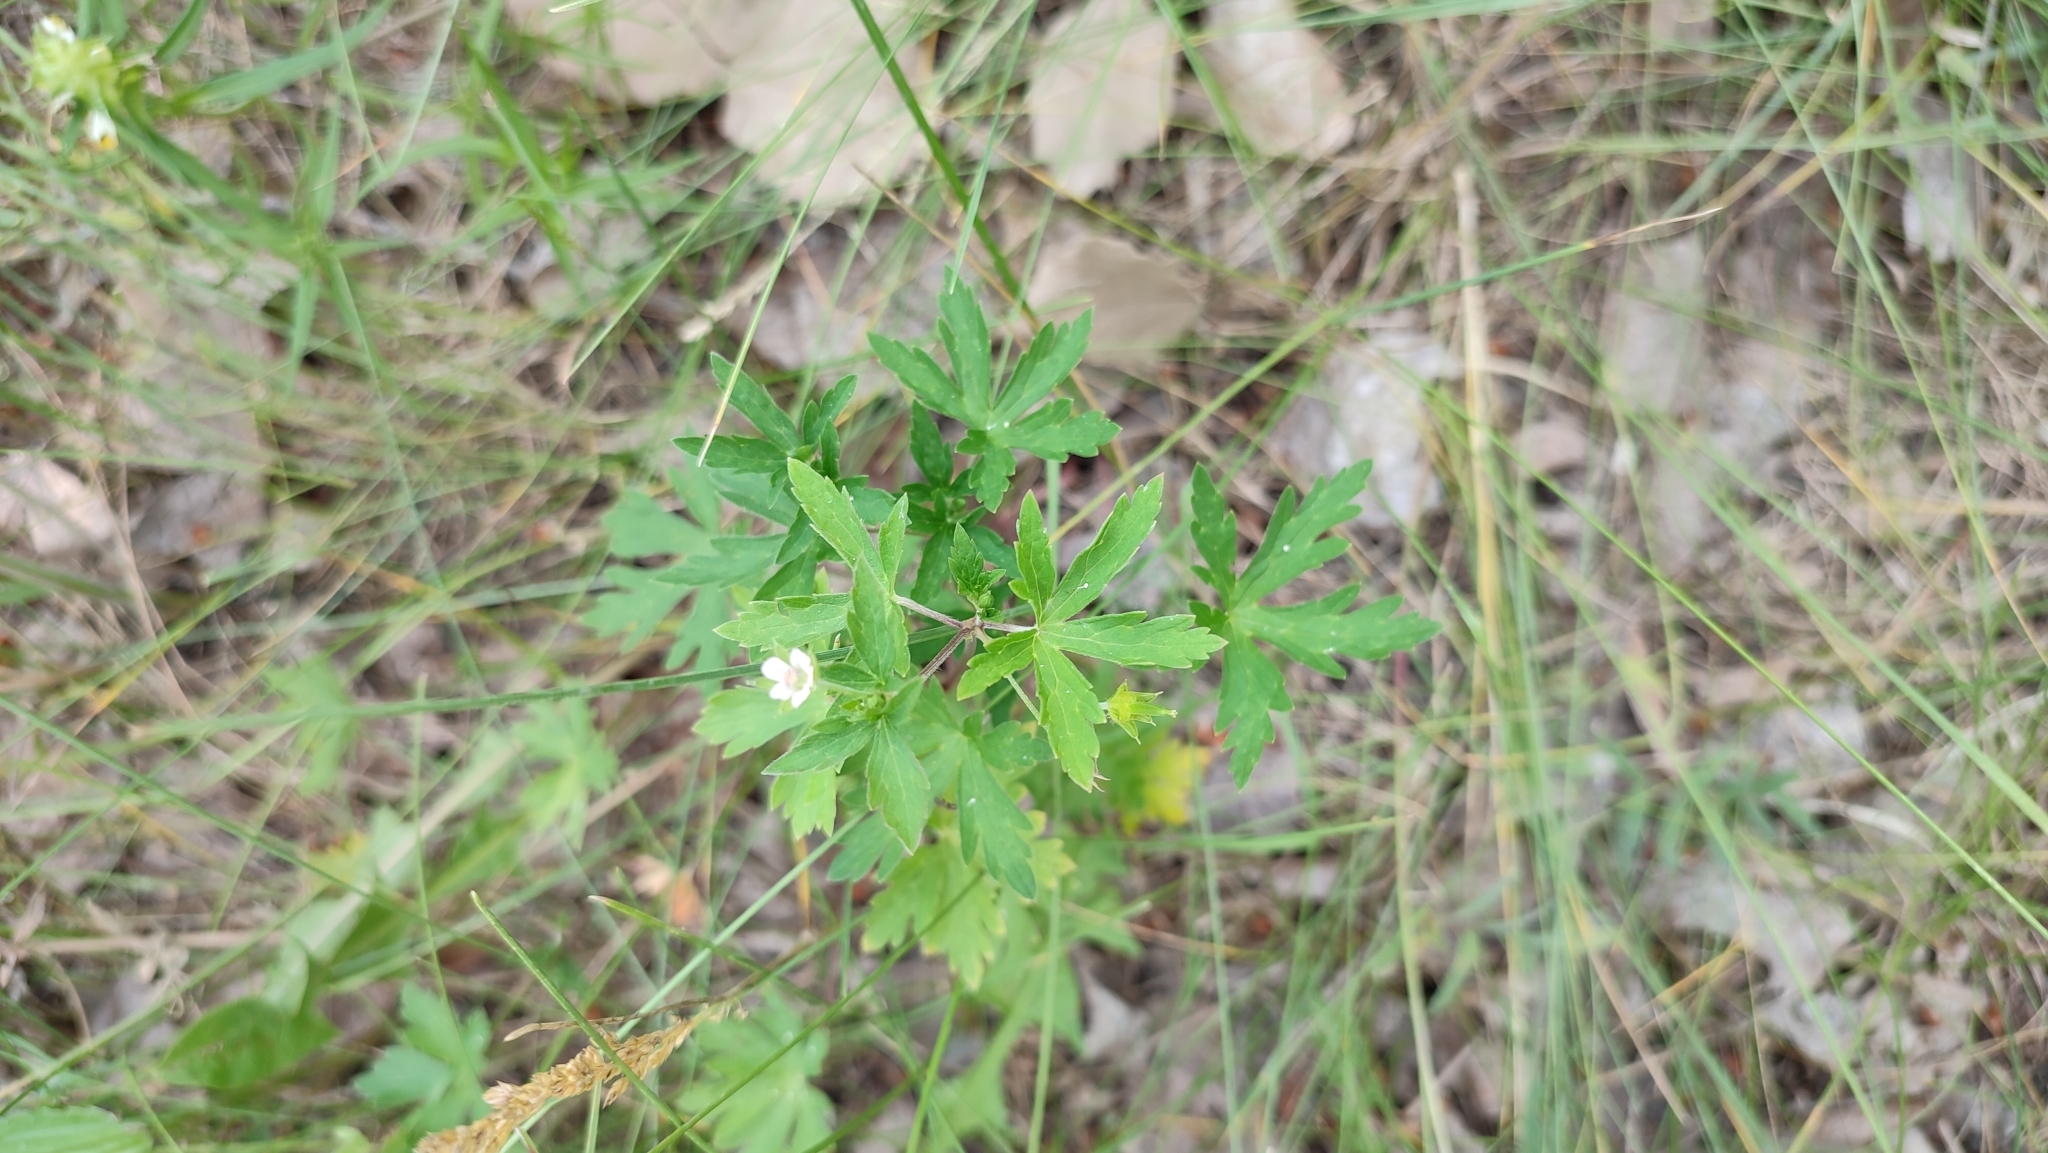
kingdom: Plantae
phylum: Tracheophyta
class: Magnoliopsida
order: Geraniales
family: Geraniaceae
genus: Geranium
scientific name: Geranium sibiricum
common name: Siberian crane's-bill
